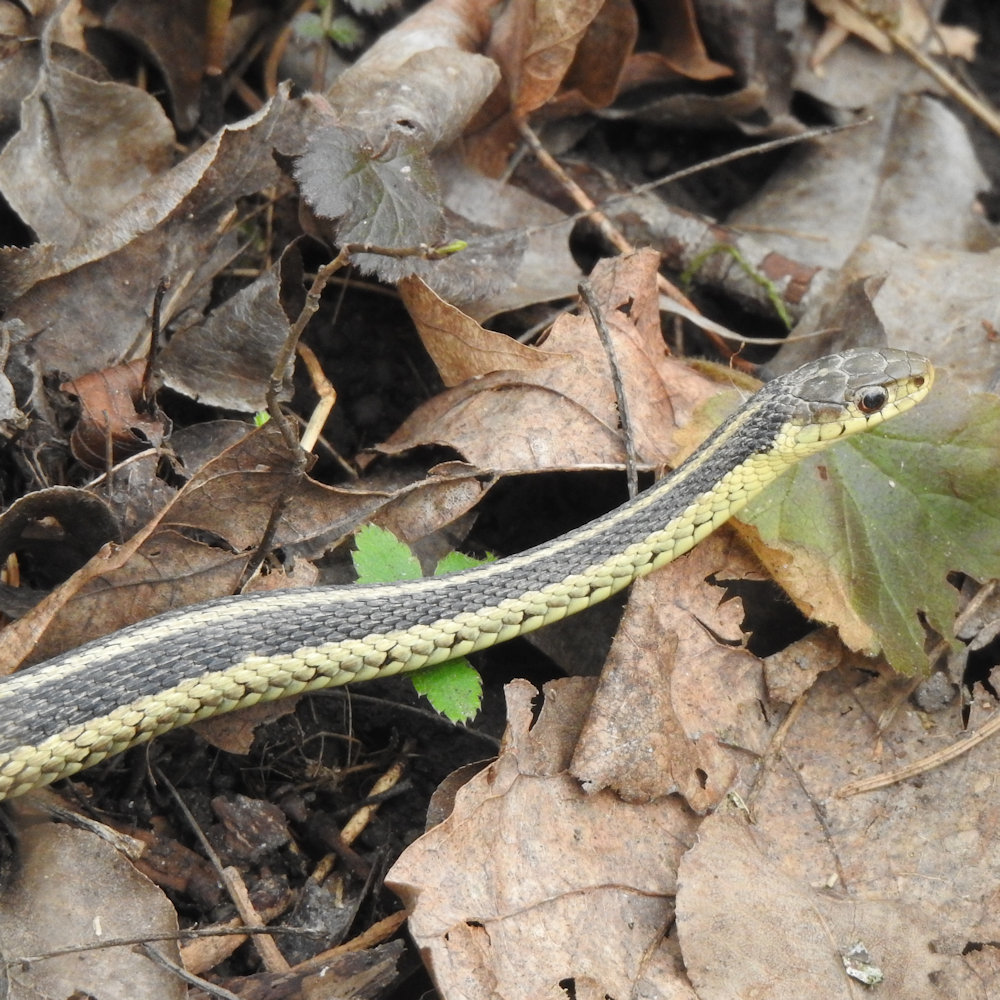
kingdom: Animalia
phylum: Chordata
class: Squamata
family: Colubridae
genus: Thamnophis
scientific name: Thamnophis sirtalis
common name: Common garter snake
